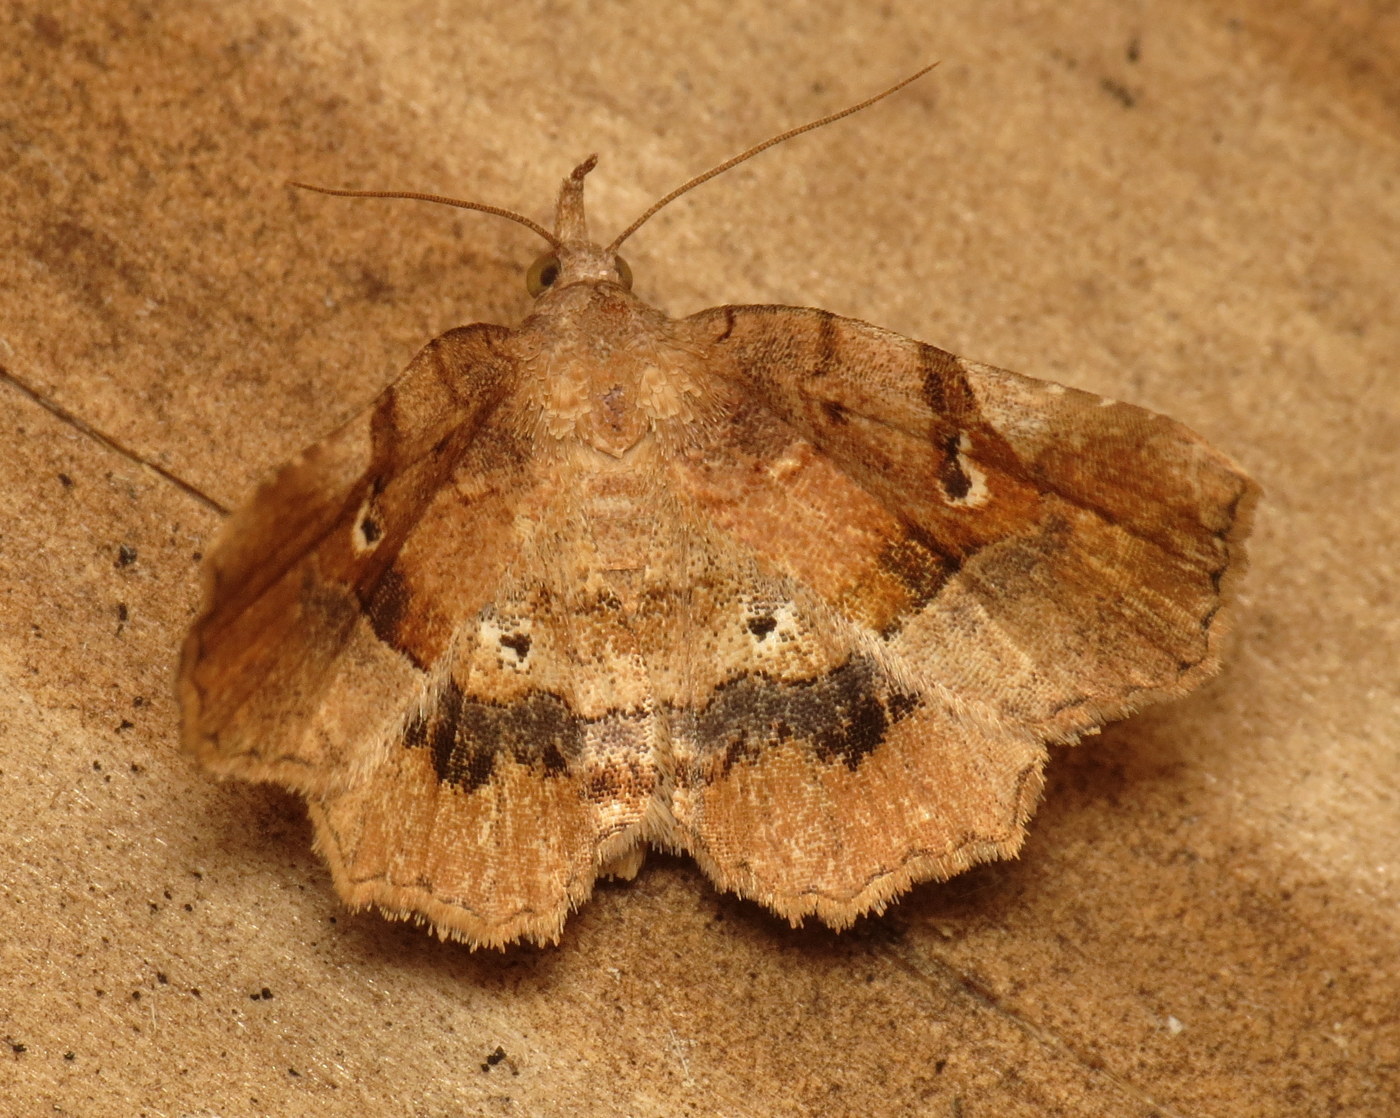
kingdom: Animalia
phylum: Arthropoda
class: Insecta
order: Lepidoptera
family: Erebidae
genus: Pangrapta
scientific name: Pangrapta decoralis
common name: Decorated owlet
